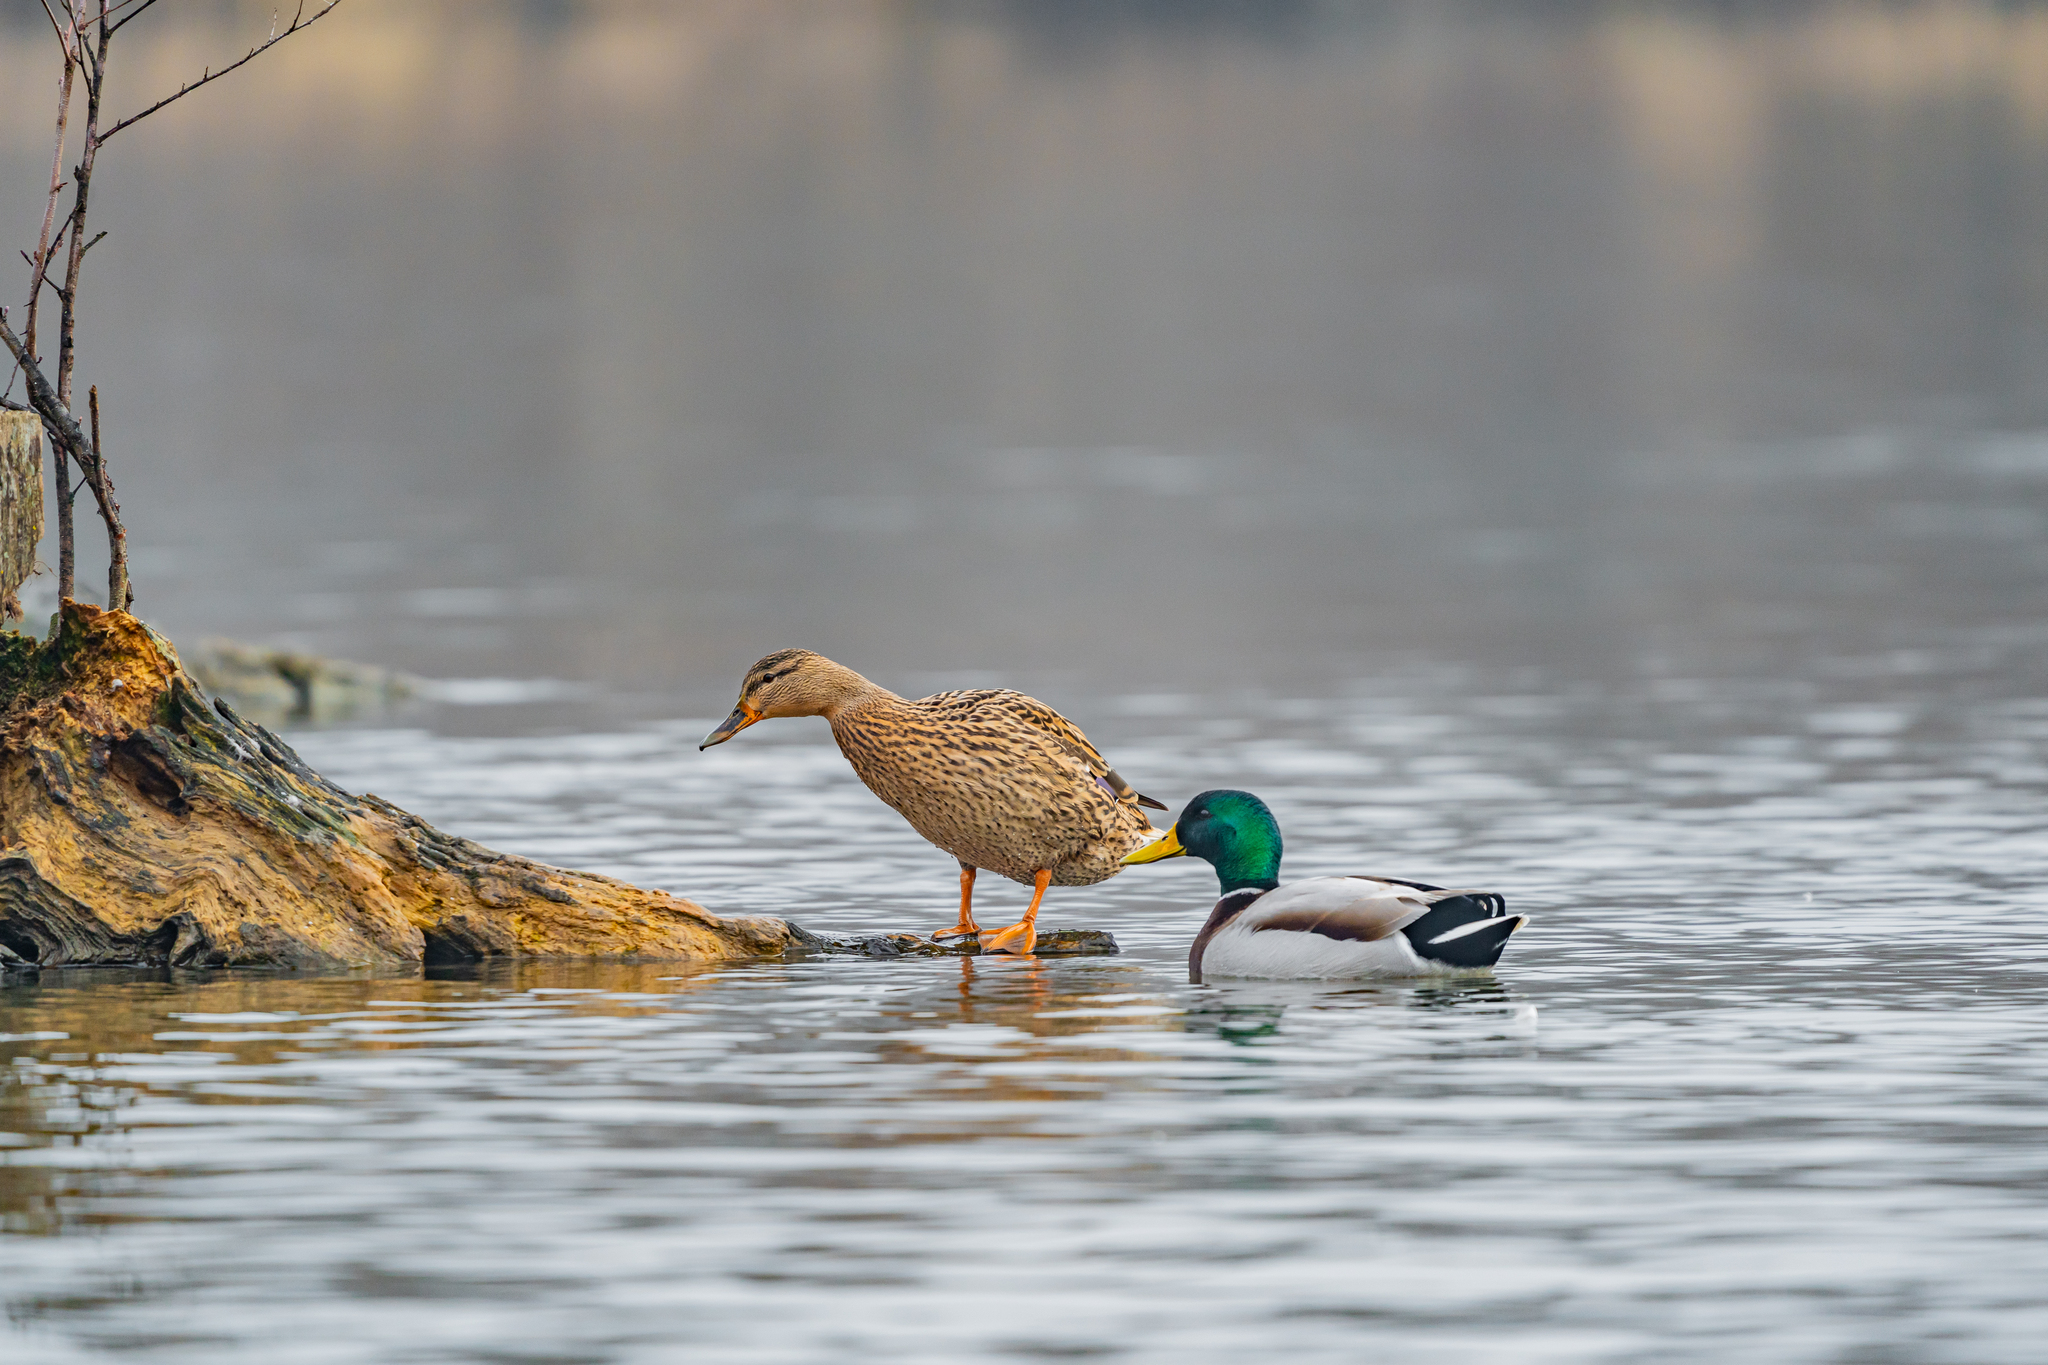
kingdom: Animalia
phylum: Chordata
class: Aves
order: Anseriformes
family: Anatidae
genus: Anas
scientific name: Anas platyrhynchos
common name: Mallard
